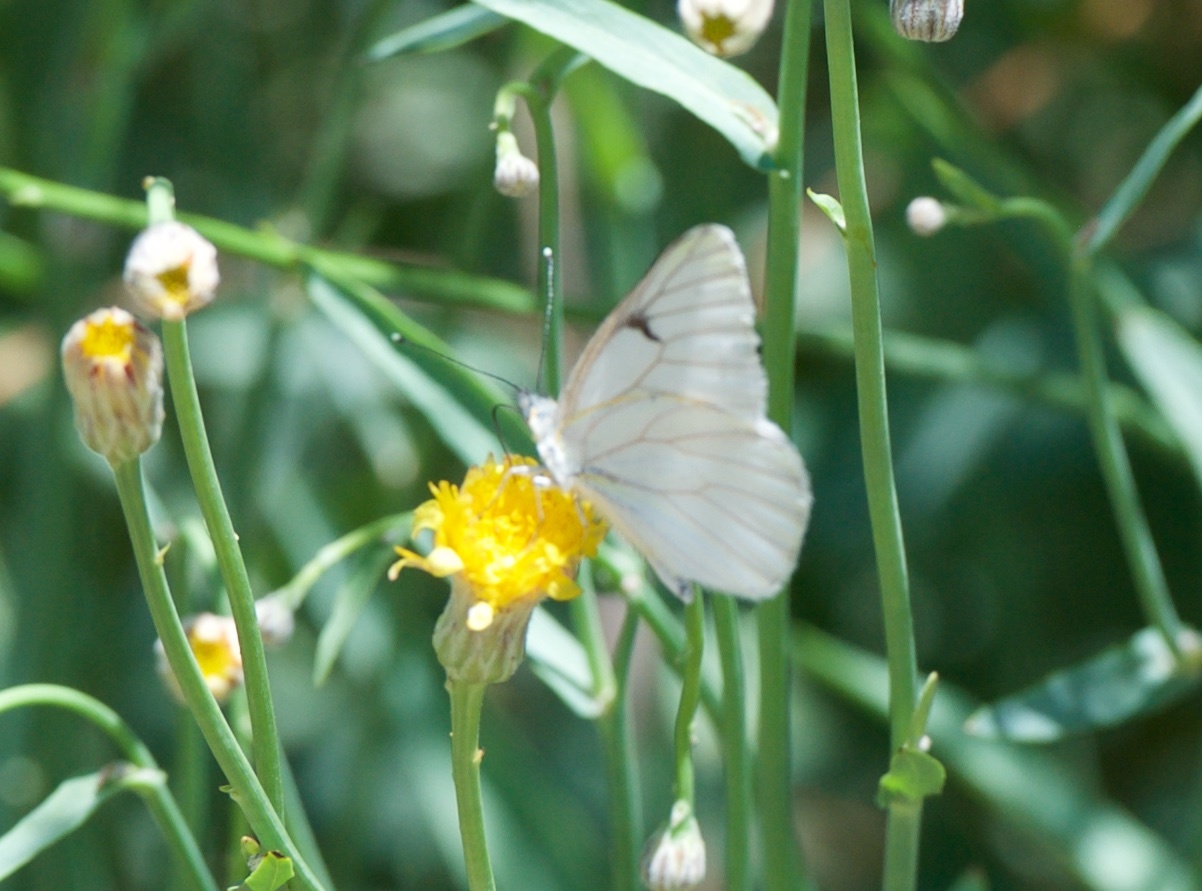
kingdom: Animalia
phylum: Arthropoda
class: Insecta
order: Lepidoptera
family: Pieridae
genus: Tatochila
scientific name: Tatochila mercedis
